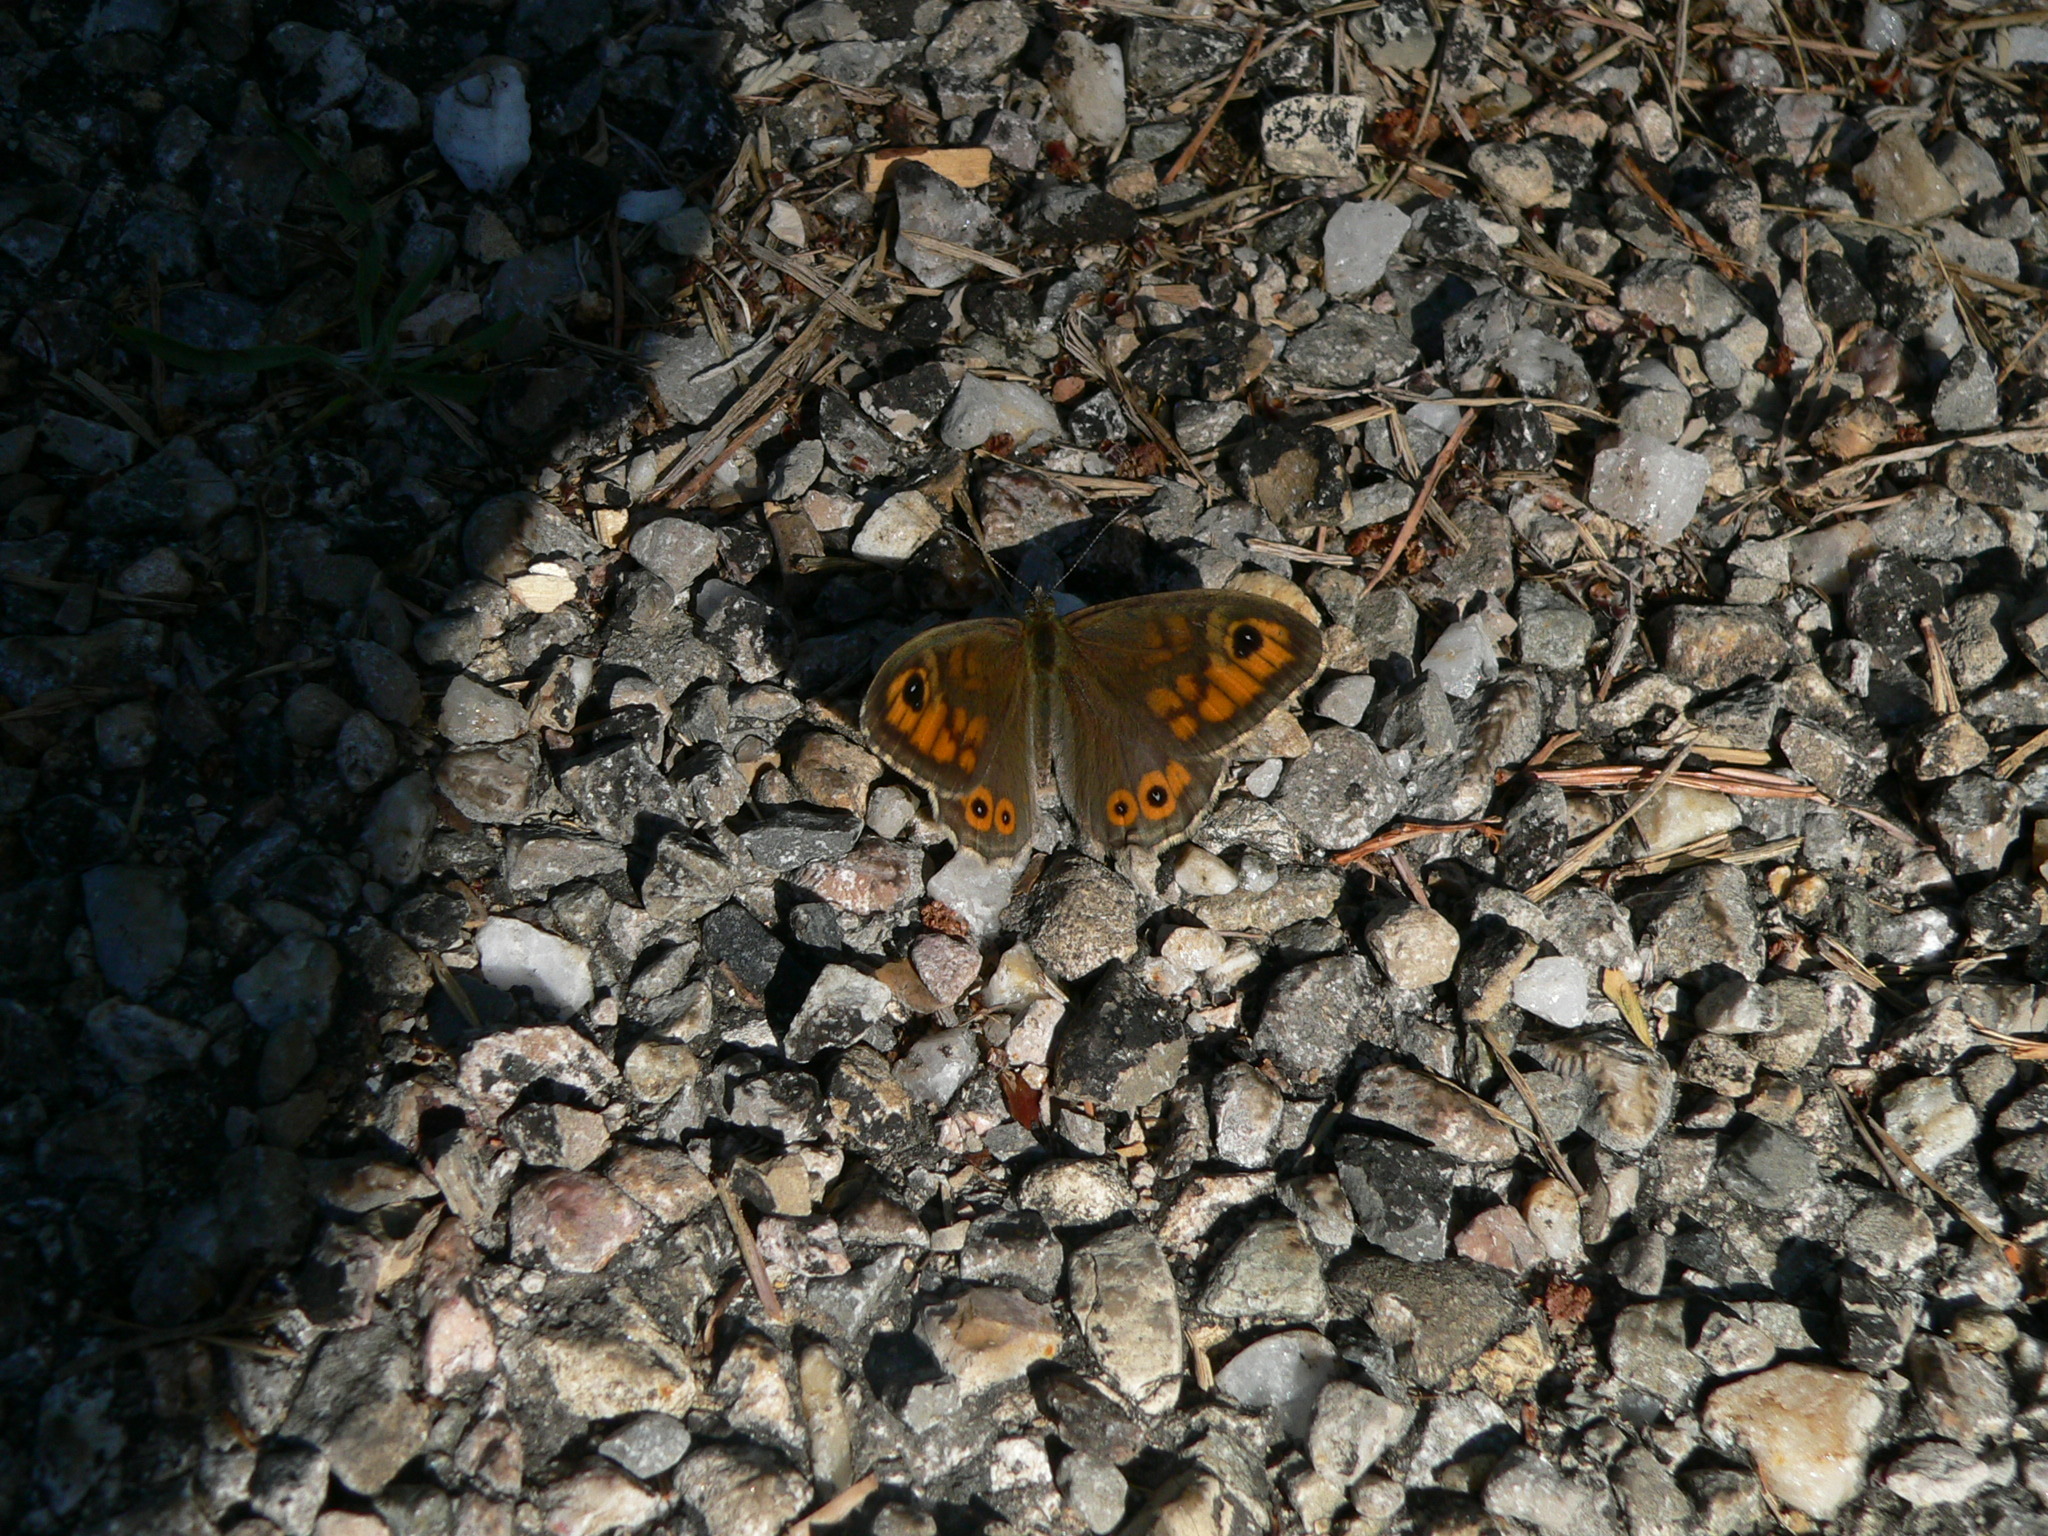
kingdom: Animalia
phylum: Arthropoda
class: Insecta
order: Lepidoptera
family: Nymphalidae
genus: Pararge
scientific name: Pararge Lasiommata maera
